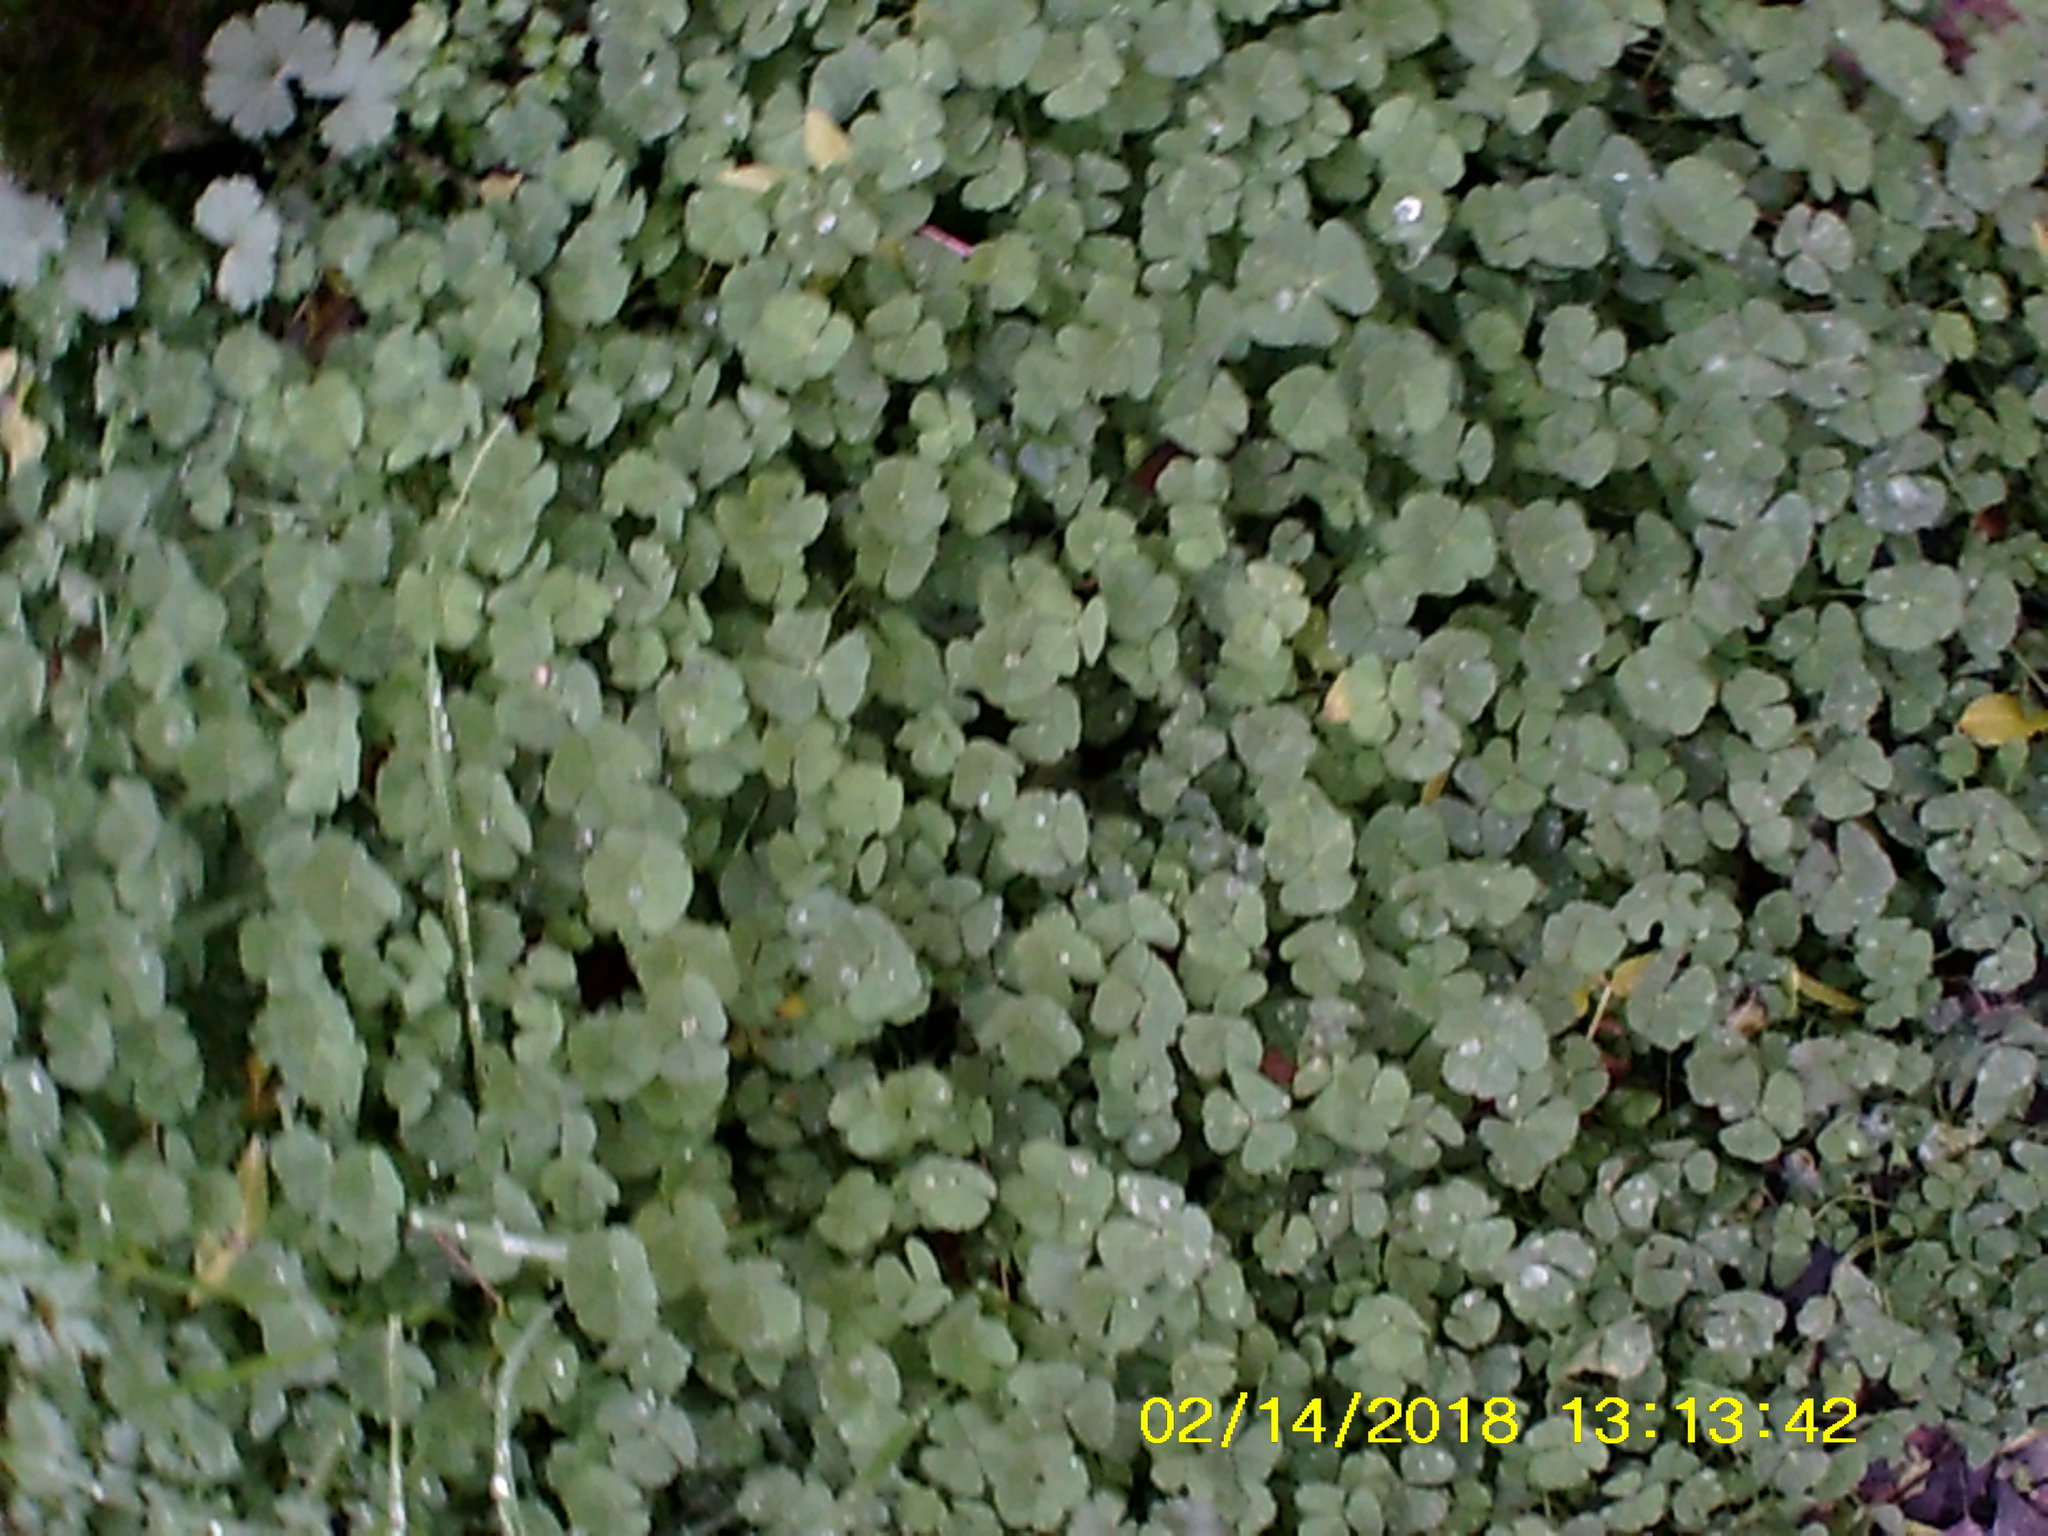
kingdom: Plantae
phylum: Tracheophyta
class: Magnoliopsida
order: Oxalidales
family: Oxalidaceae
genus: Oxalis
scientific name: Oxalis corniculata
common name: Procumbent yellow-sorrel
